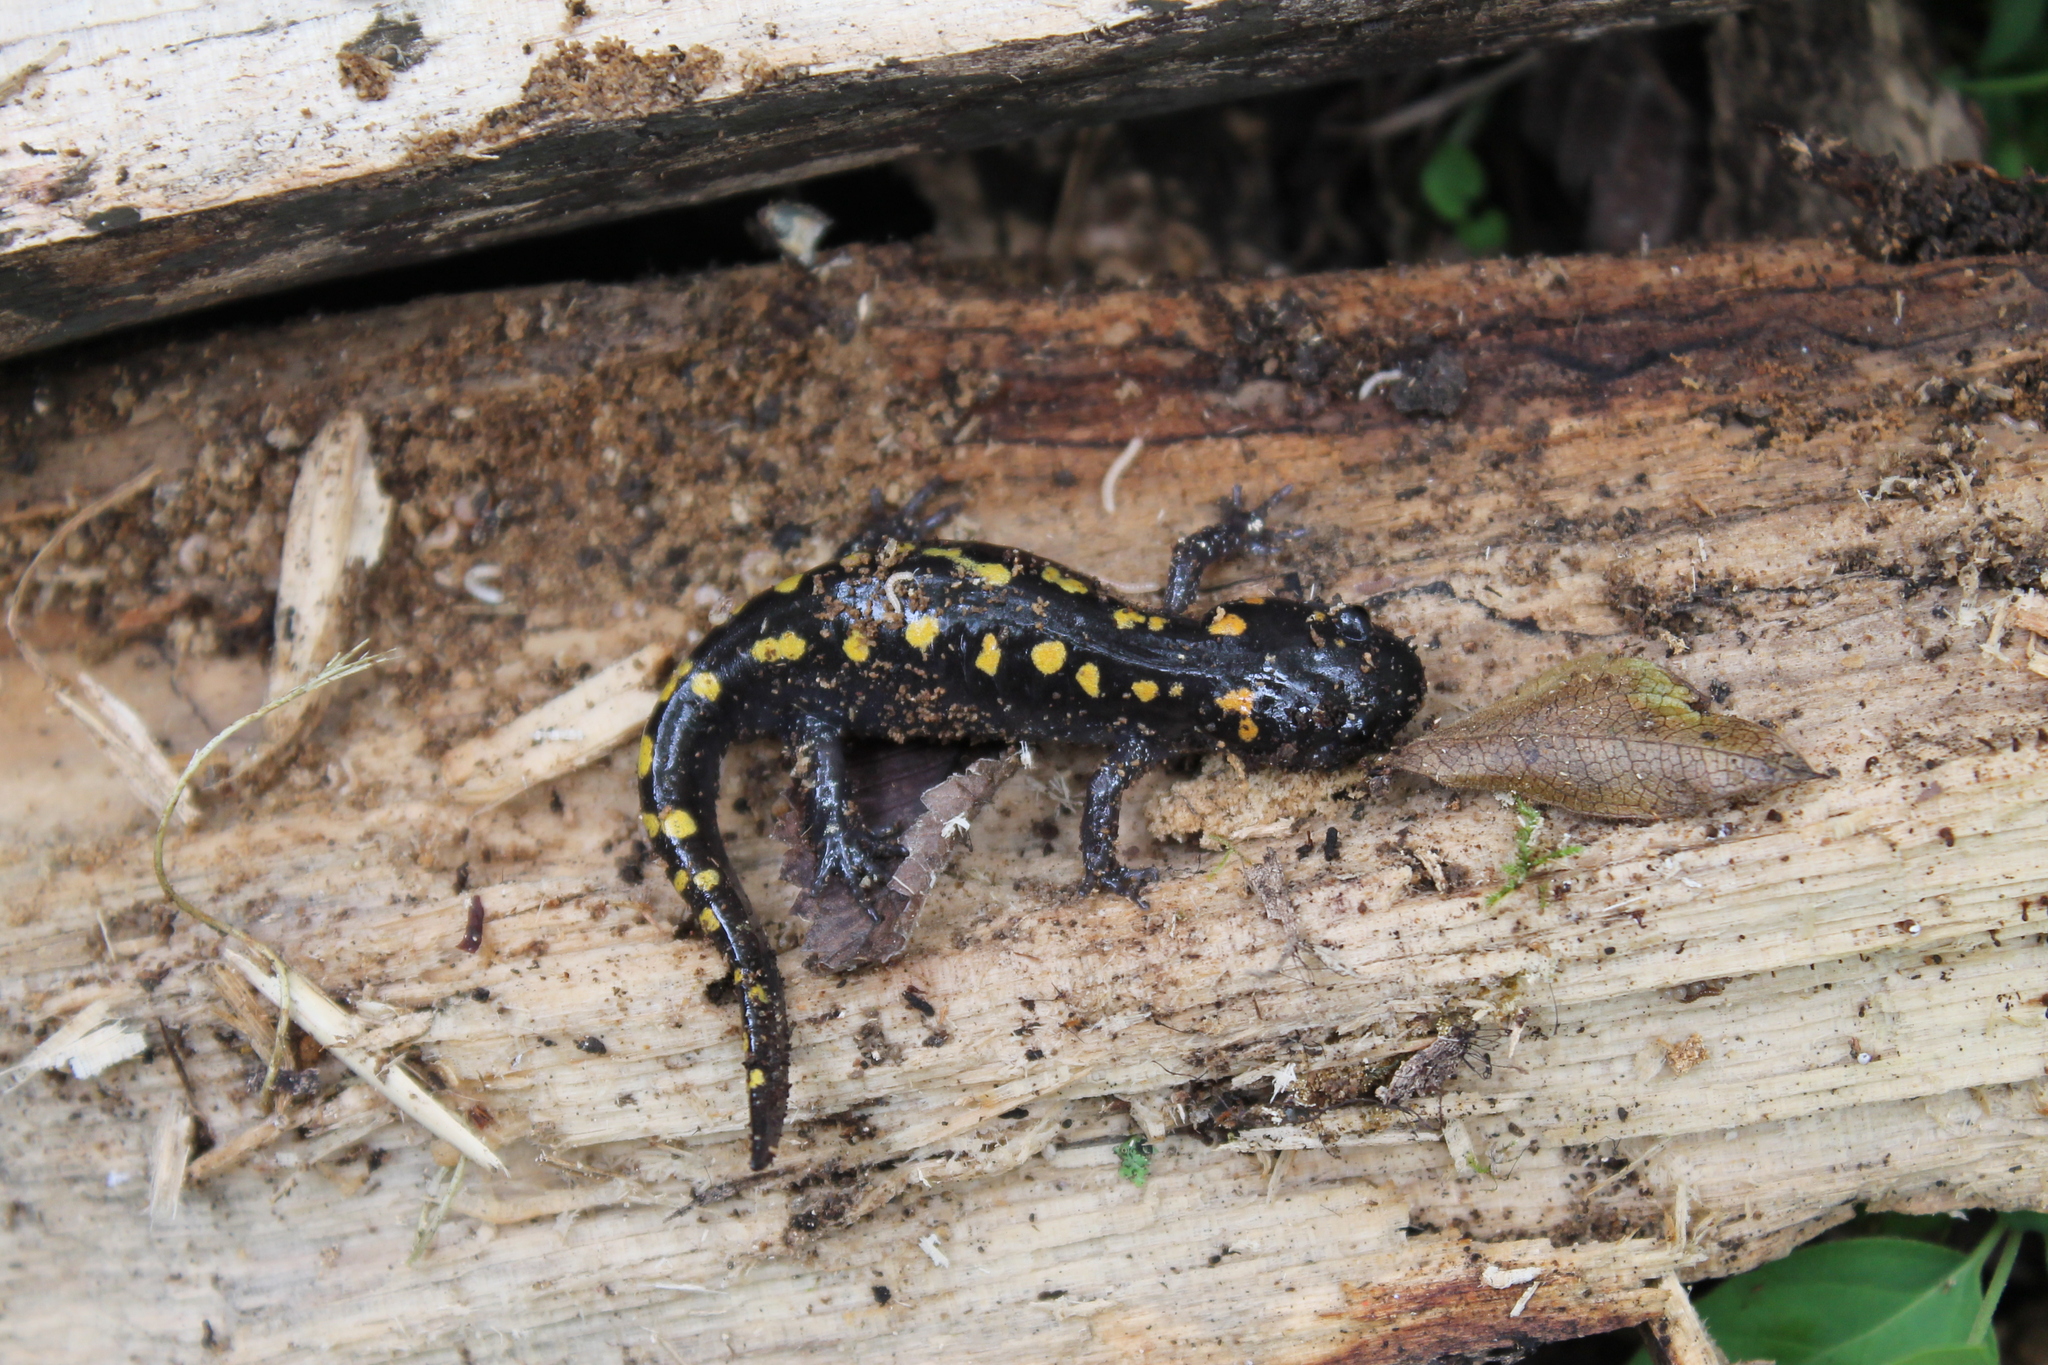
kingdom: Animalia
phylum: Chordata
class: Amphibia
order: Caudata
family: Ambystomatidae
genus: Ambystoma
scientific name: Ambystoma maculatum
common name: Spotted salamander
